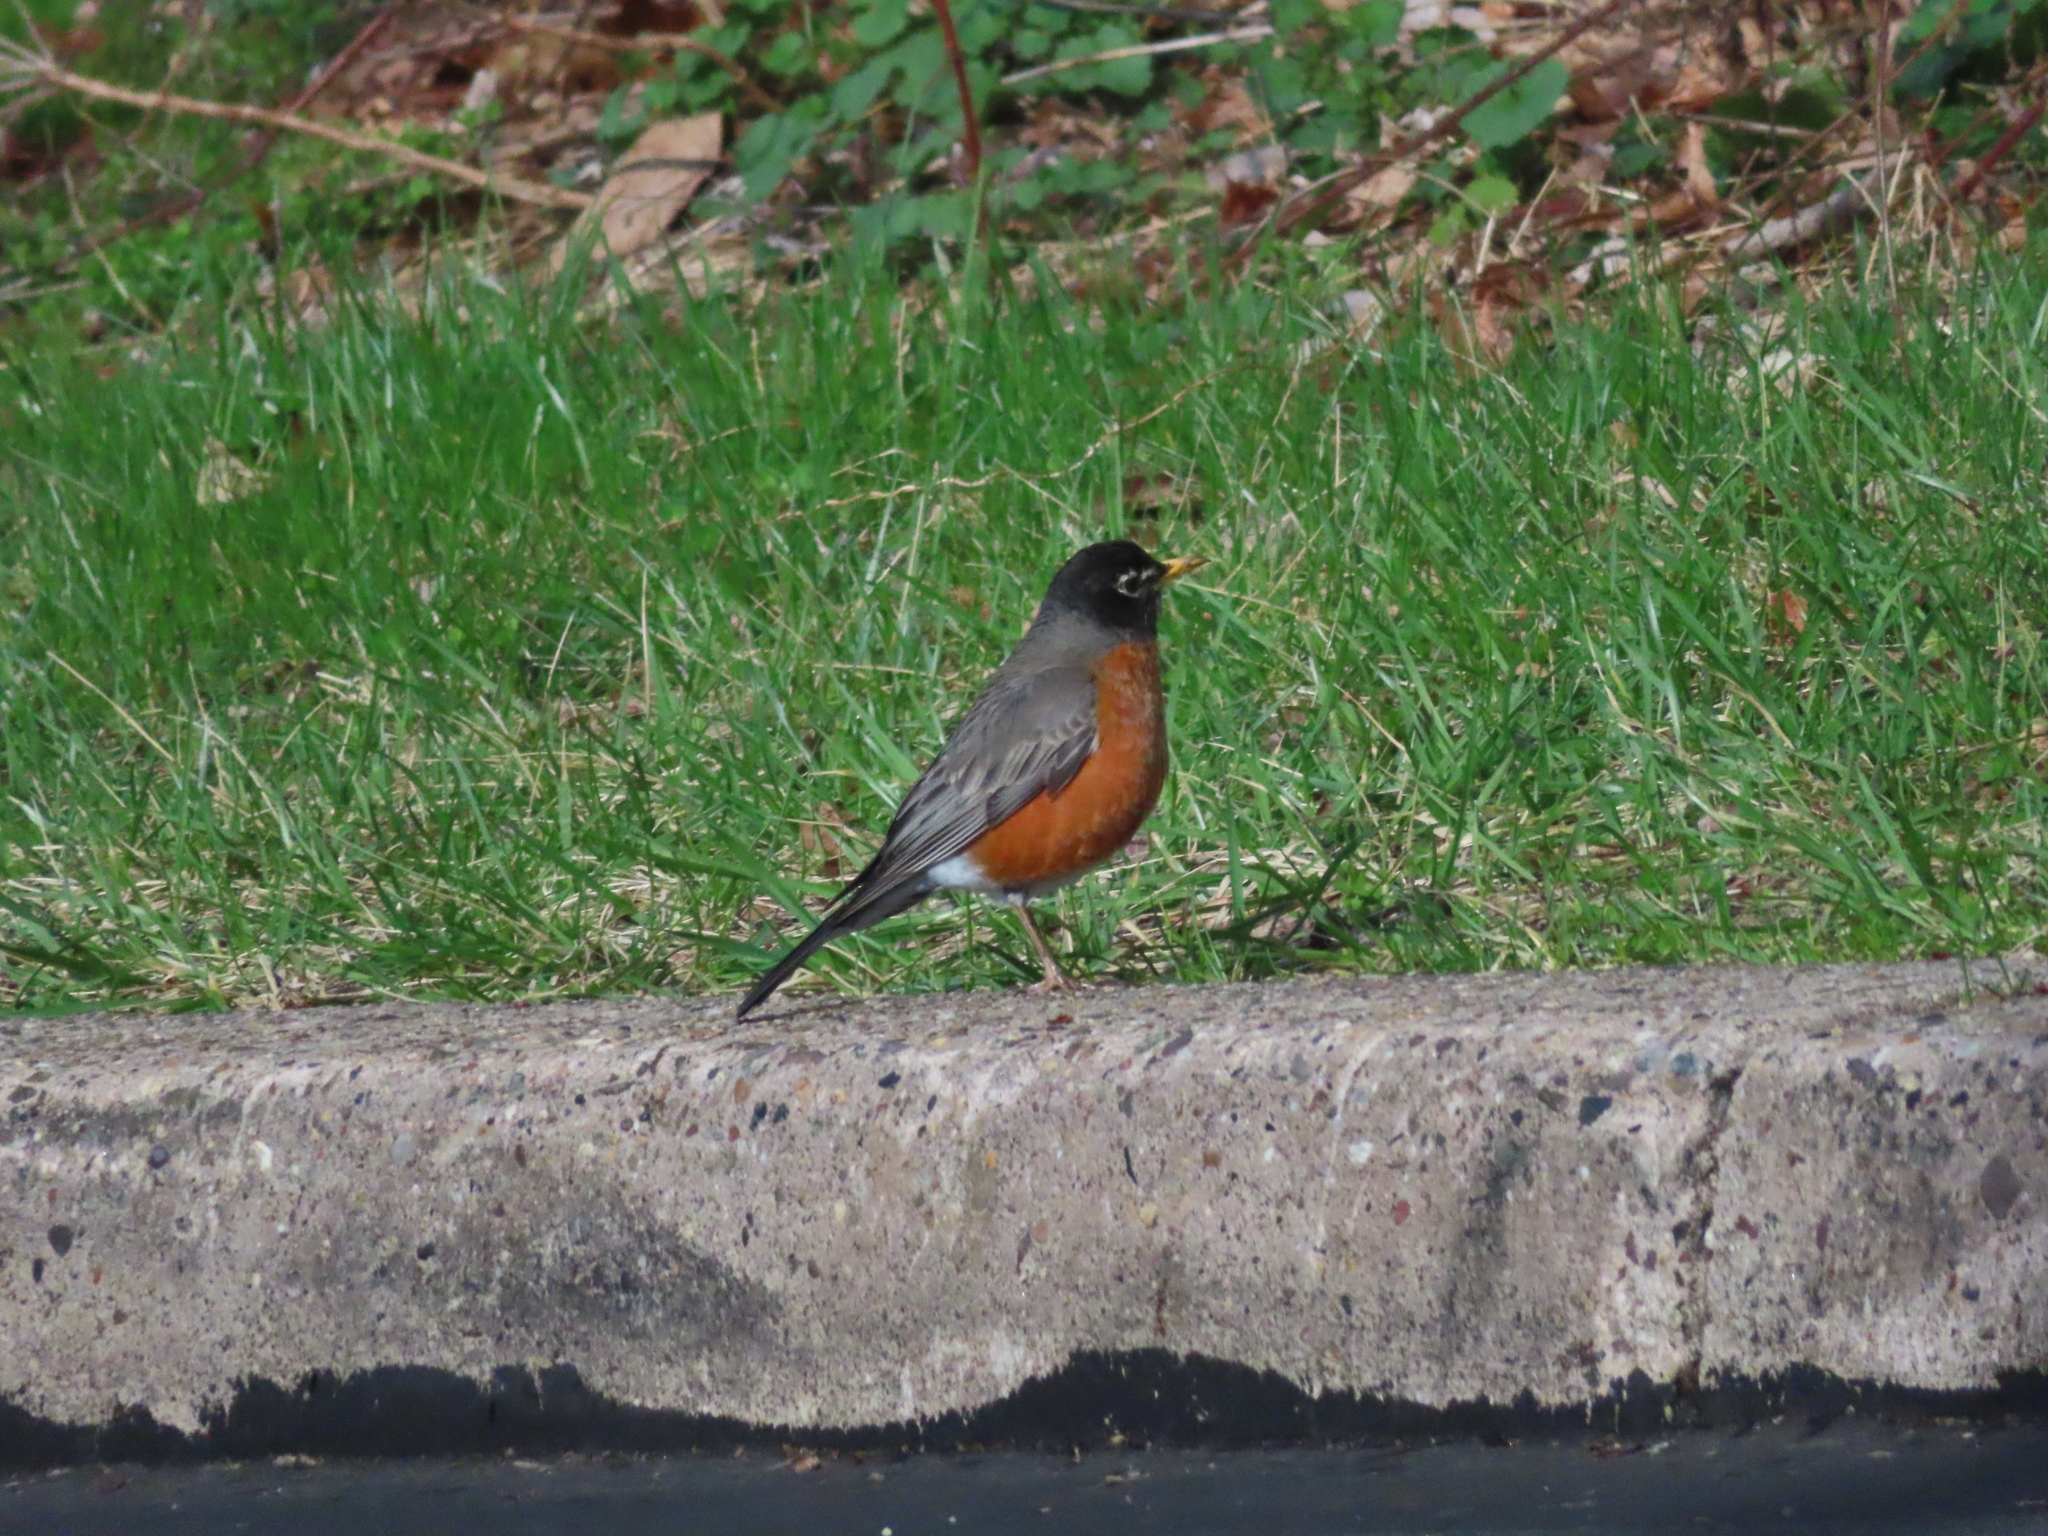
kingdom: Animalia
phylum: Chordata
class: Aves
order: Passeriformes
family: Turdidae
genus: Turdus
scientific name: Turdus migratorius
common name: American robin
